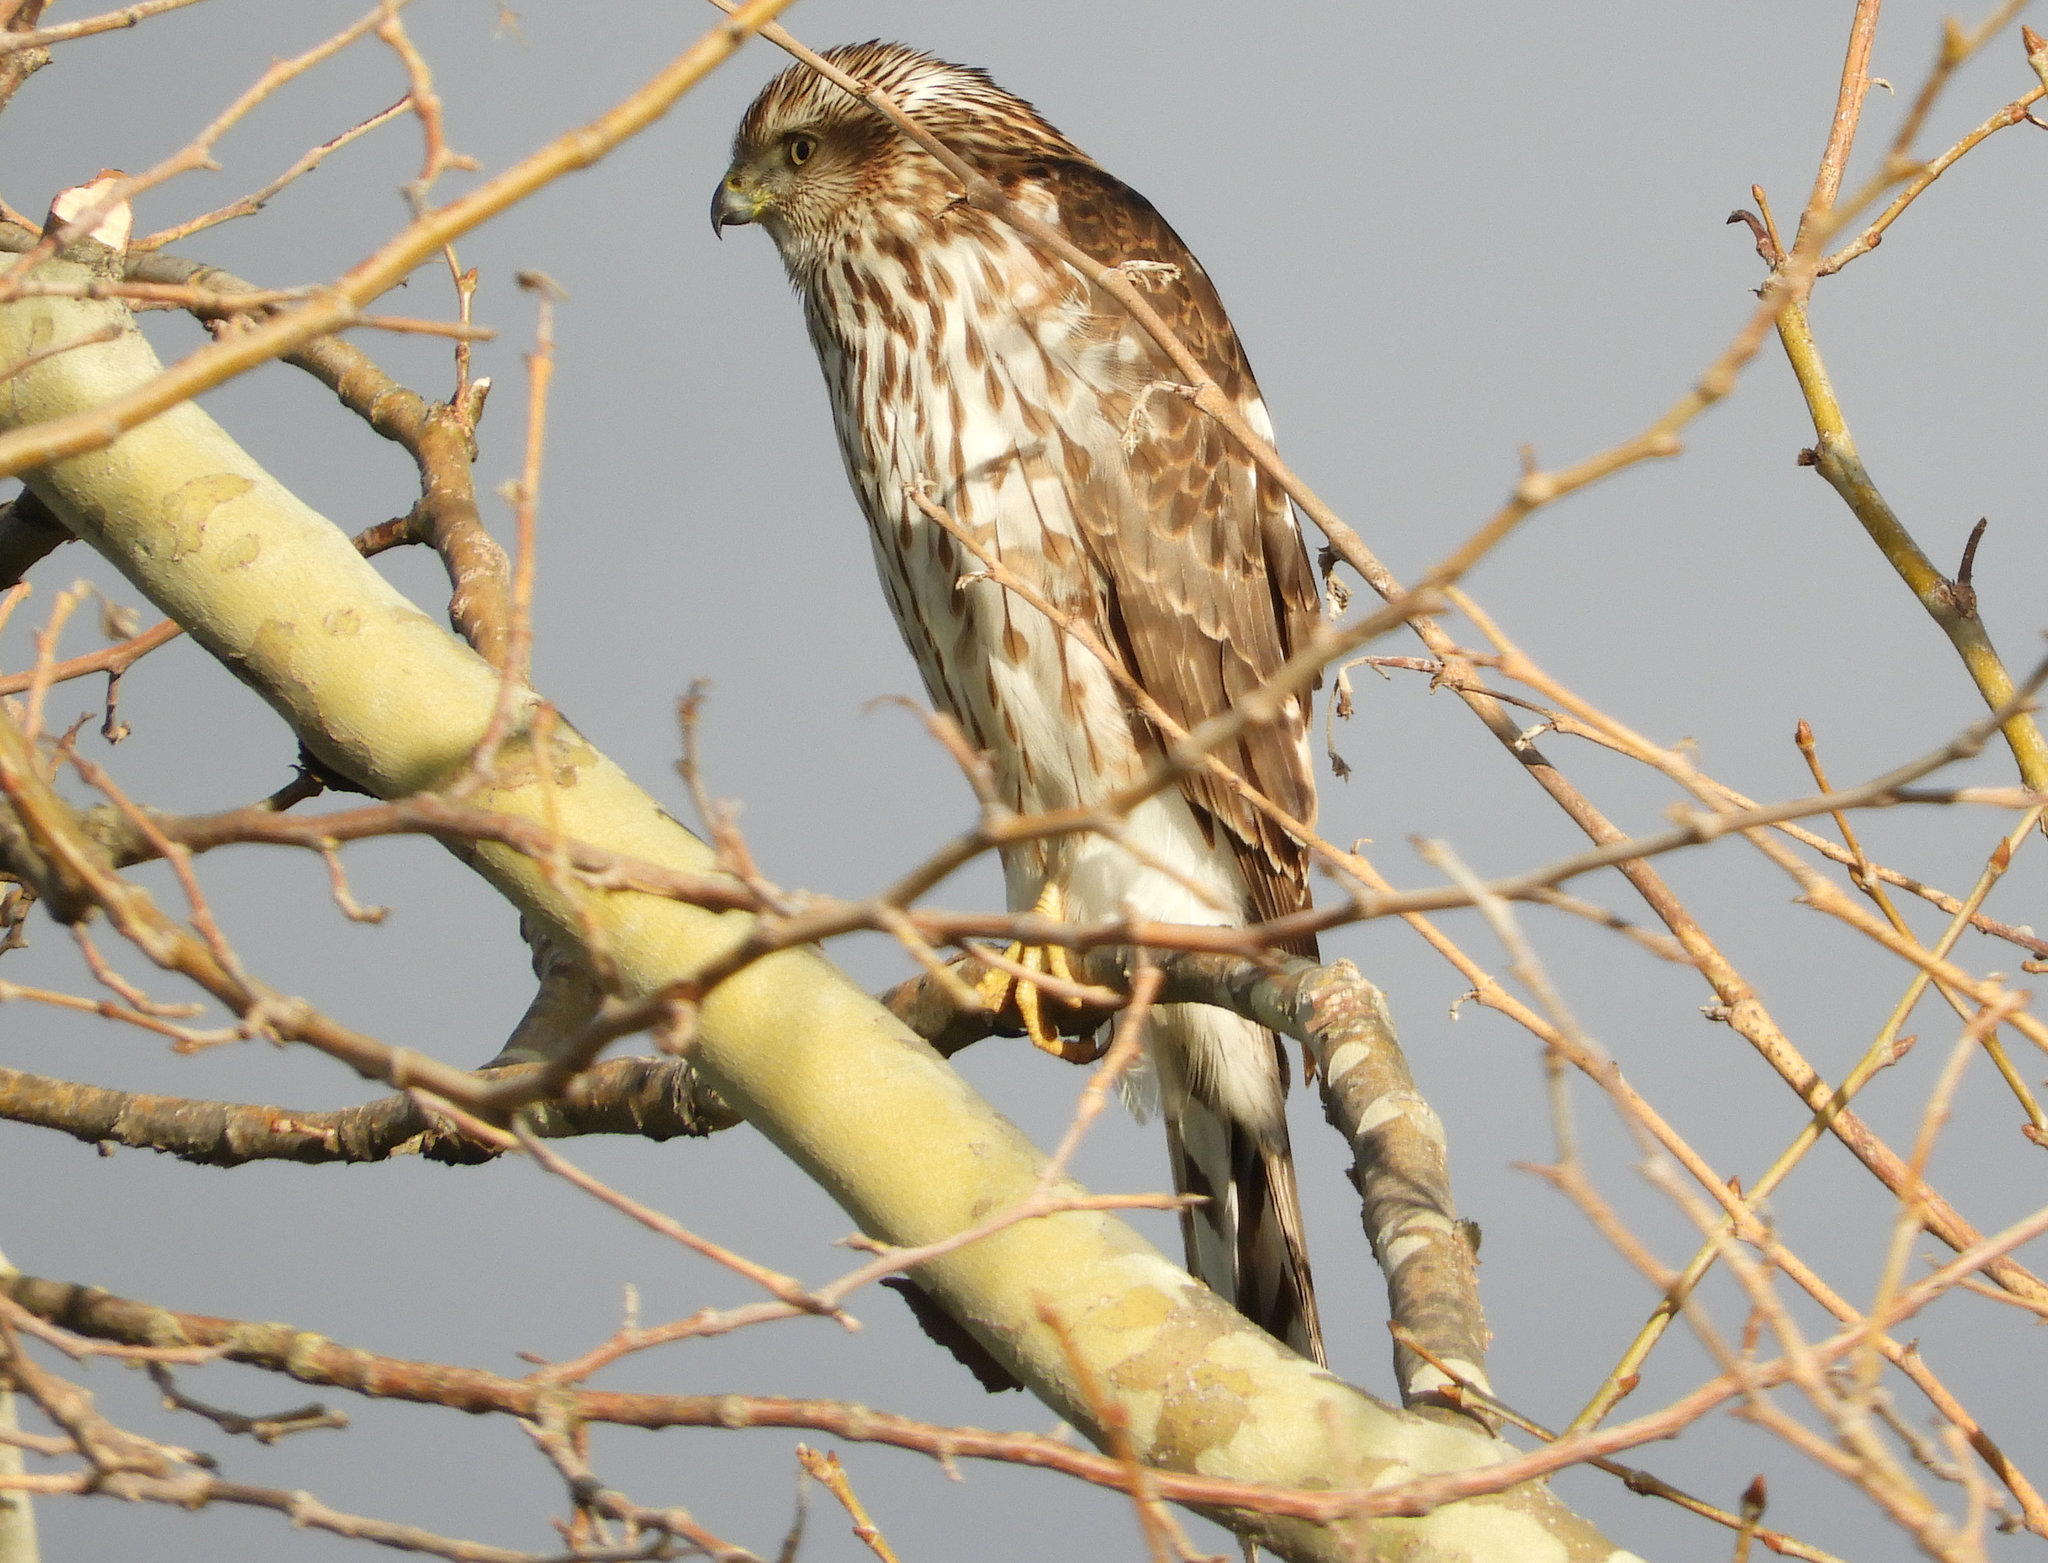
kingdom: Animalia
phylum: Chordata
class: Aves
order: Accipitriformes
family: Accipitridae
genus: Accipiter
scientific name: Accipiter cooperii
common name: Cooper's hawk
